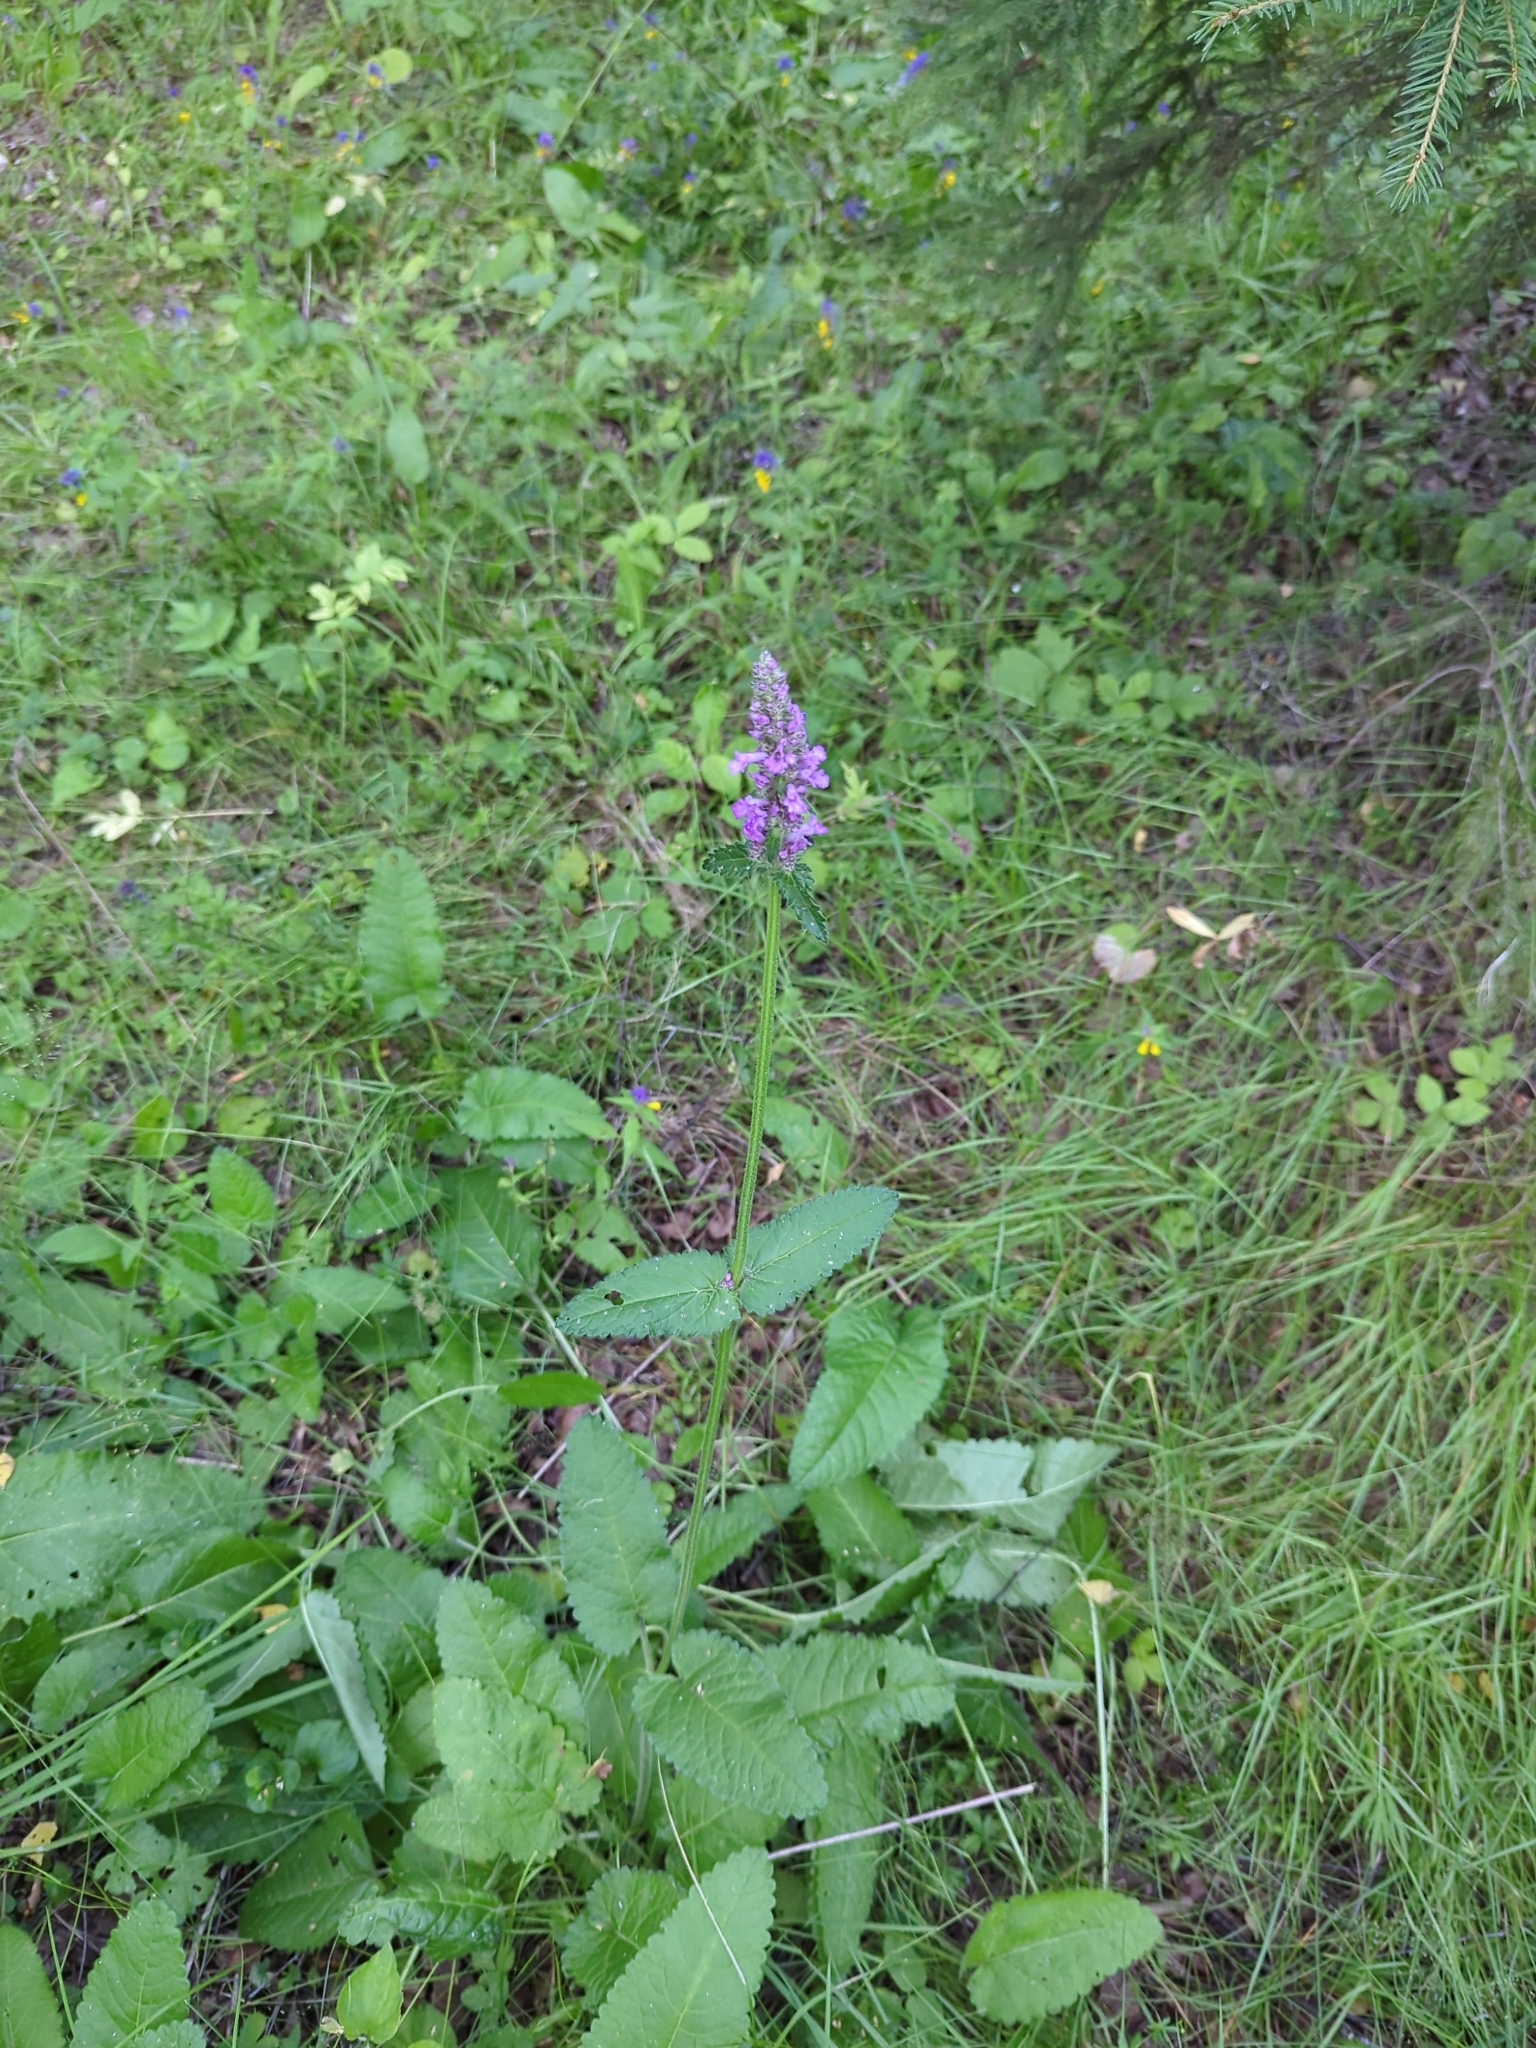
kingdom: Plantae
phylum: Tracheophyta
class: Magnoliopsida
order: Lamiales
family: Lamiaceae
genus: Betonica
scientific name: Betonica officinalis
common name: Bishop's-wort
